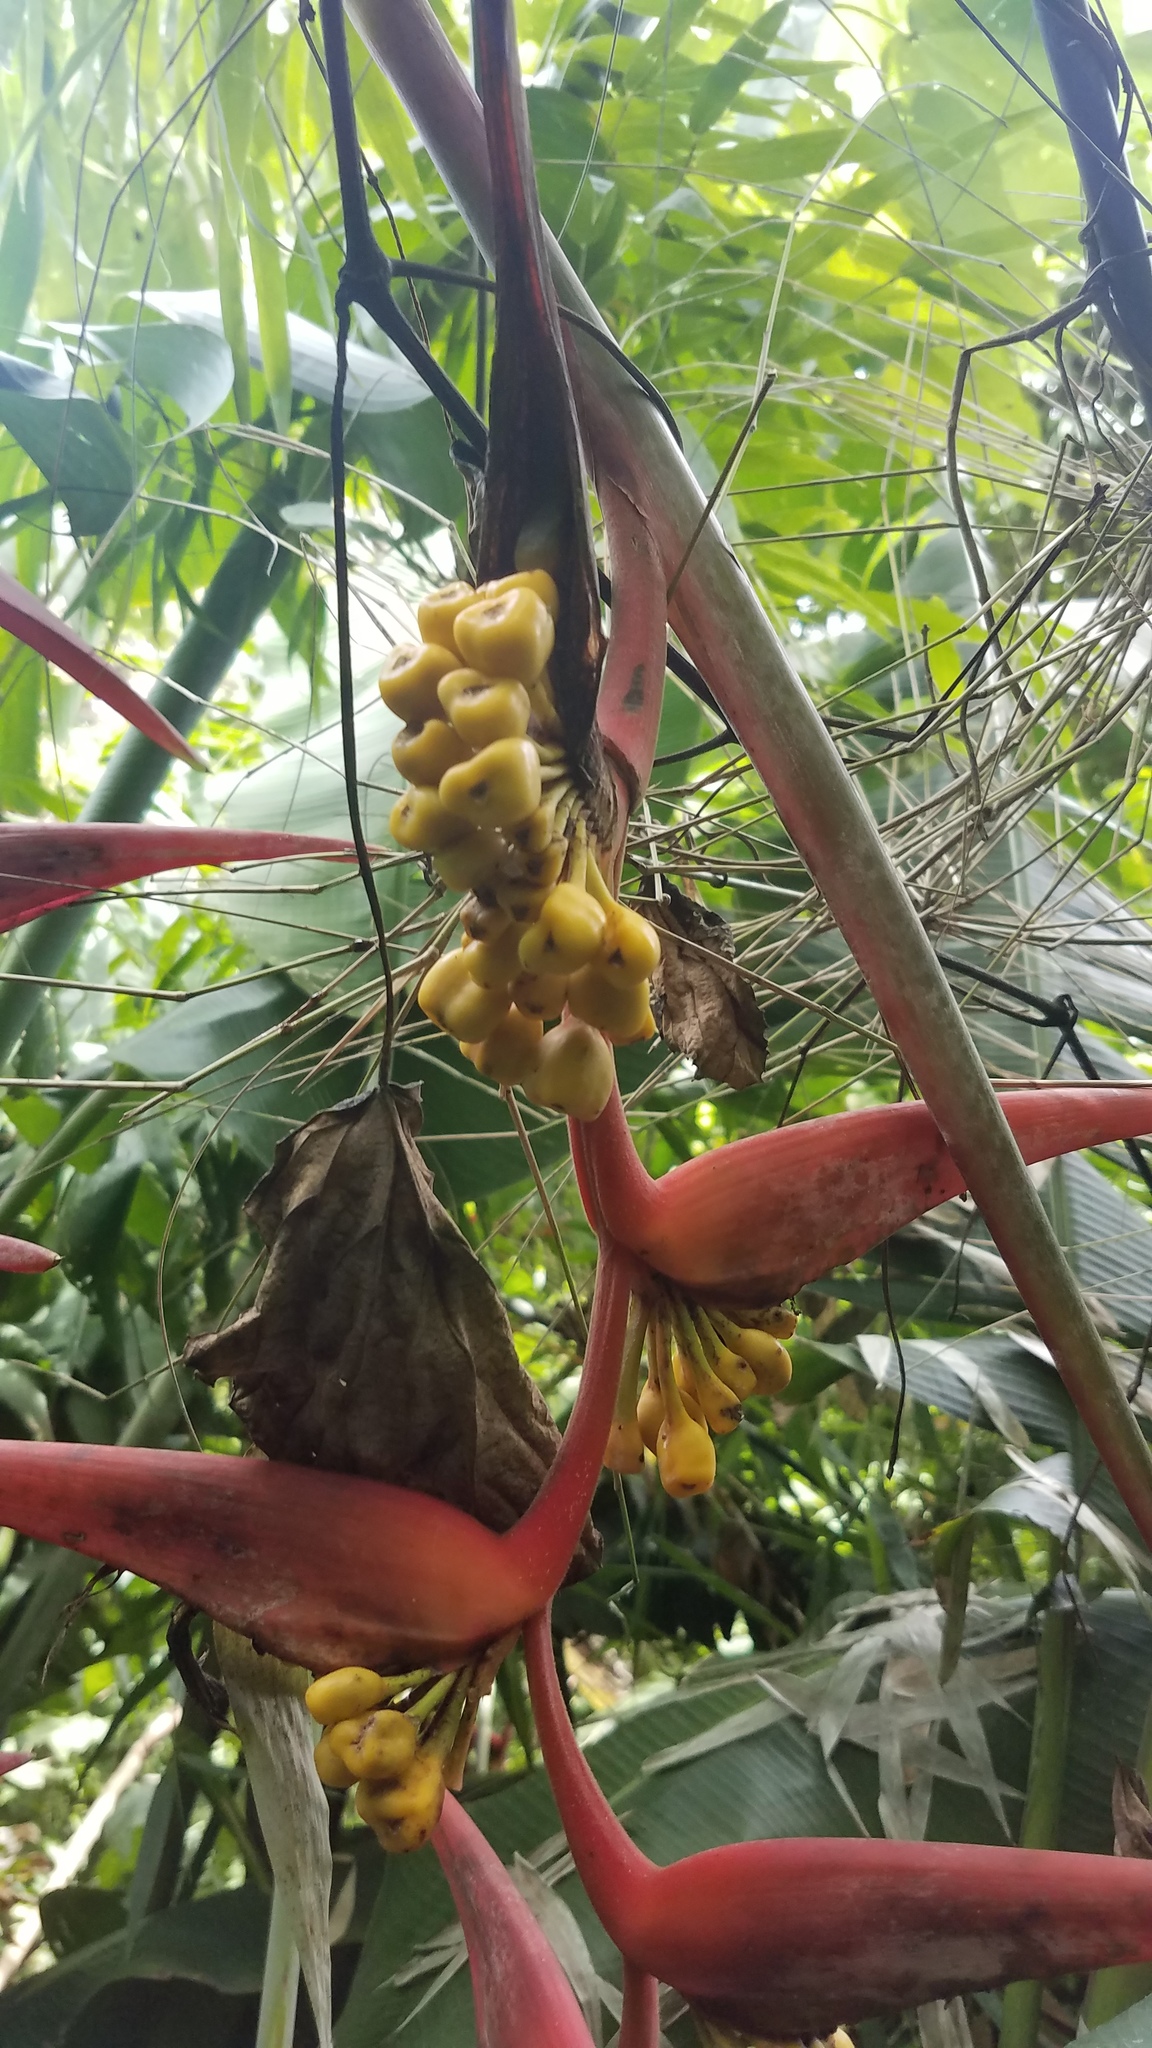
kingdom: Plantae
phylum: Tracheophyta
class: Liliopsida
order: Zingiberales
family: Heliconiaceae
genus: Heliconia
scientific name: Heliconia collinsiana
